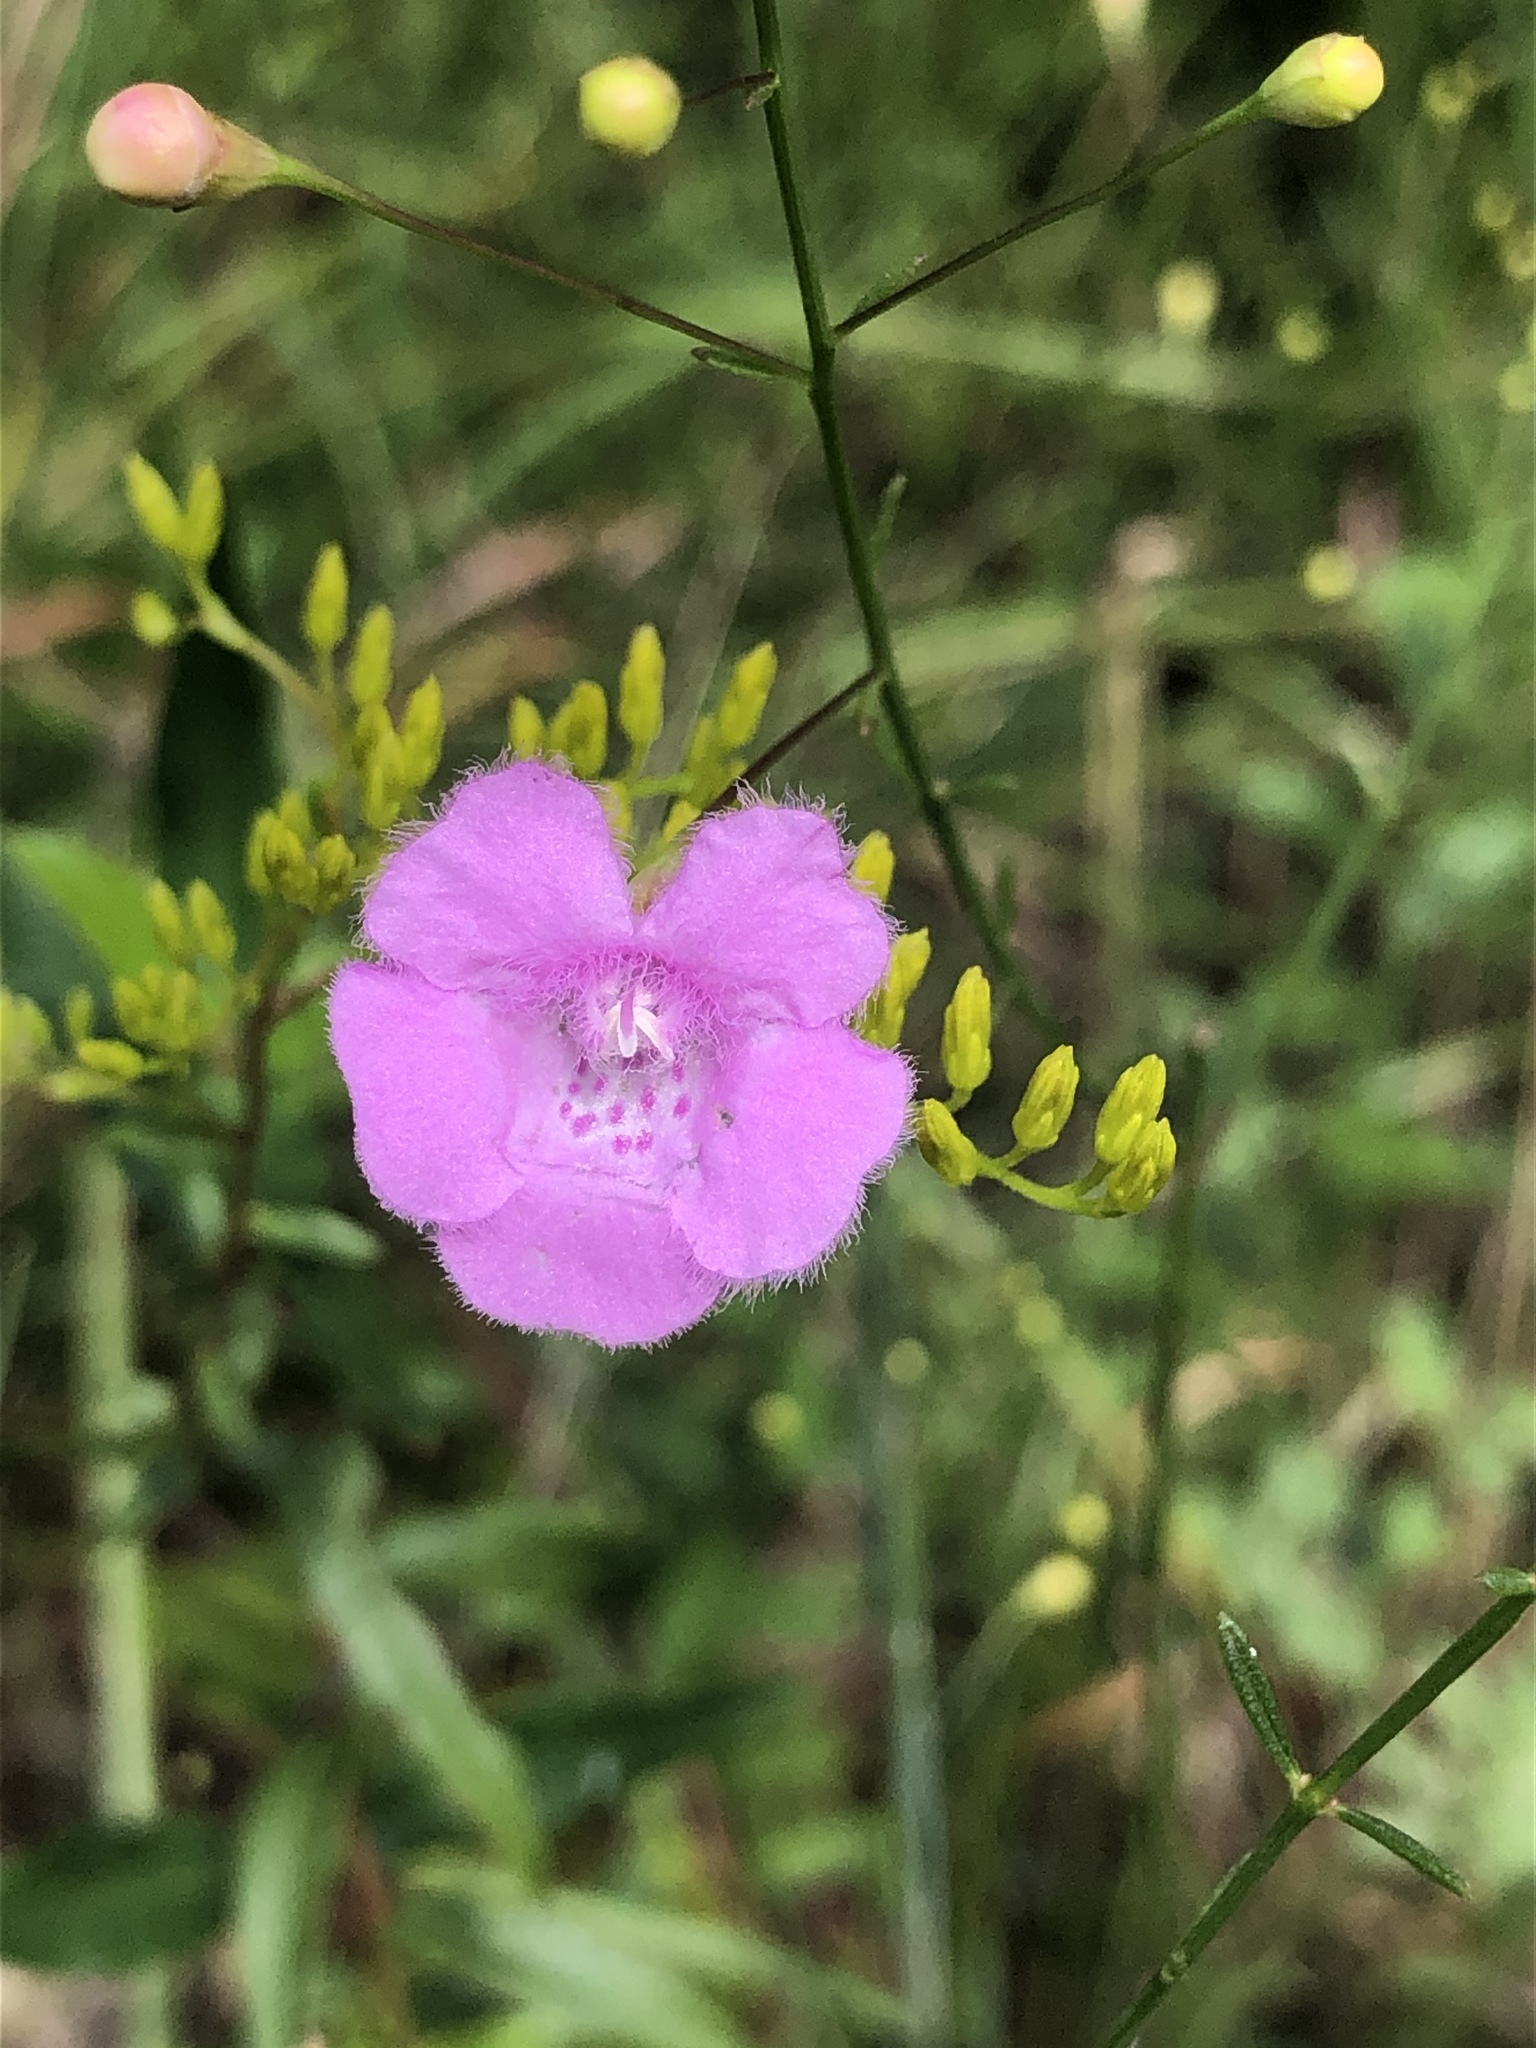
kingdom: Plantae
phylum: Tracheophyta
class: Magnoliopsida
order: Lamiales
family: Orobanchaceae
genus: Agalinis
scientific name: Agalinis obtusifolia
